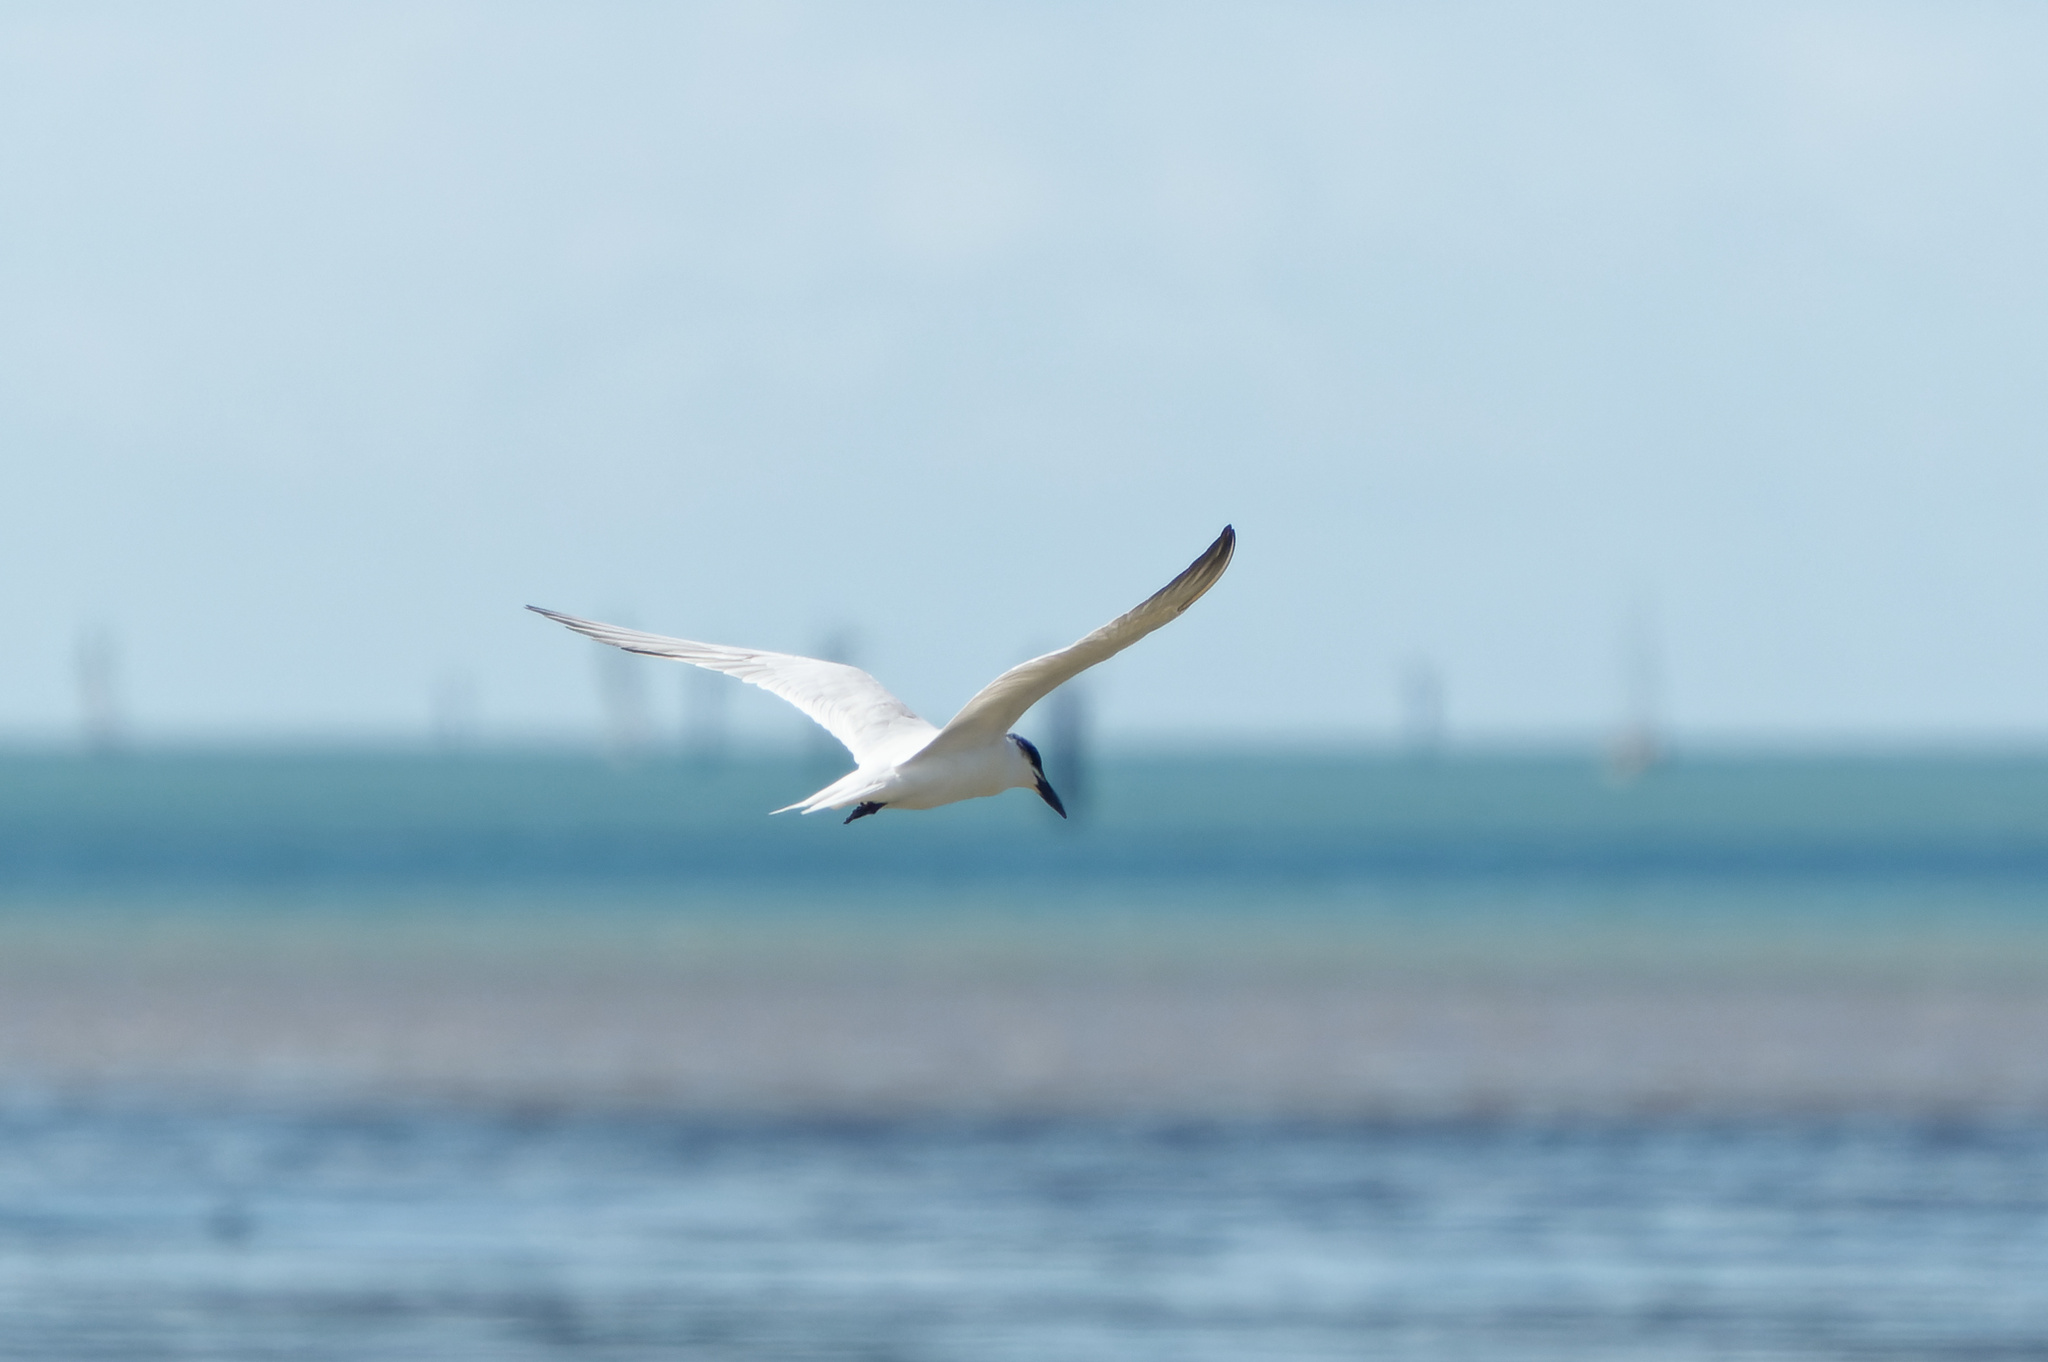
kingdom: Animalia
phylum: Chordata
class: Aves
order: Charadriiformes
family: Laridae
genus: Gelochelidon
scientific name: Gelochelidon macrotarsa
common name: Australian tern
